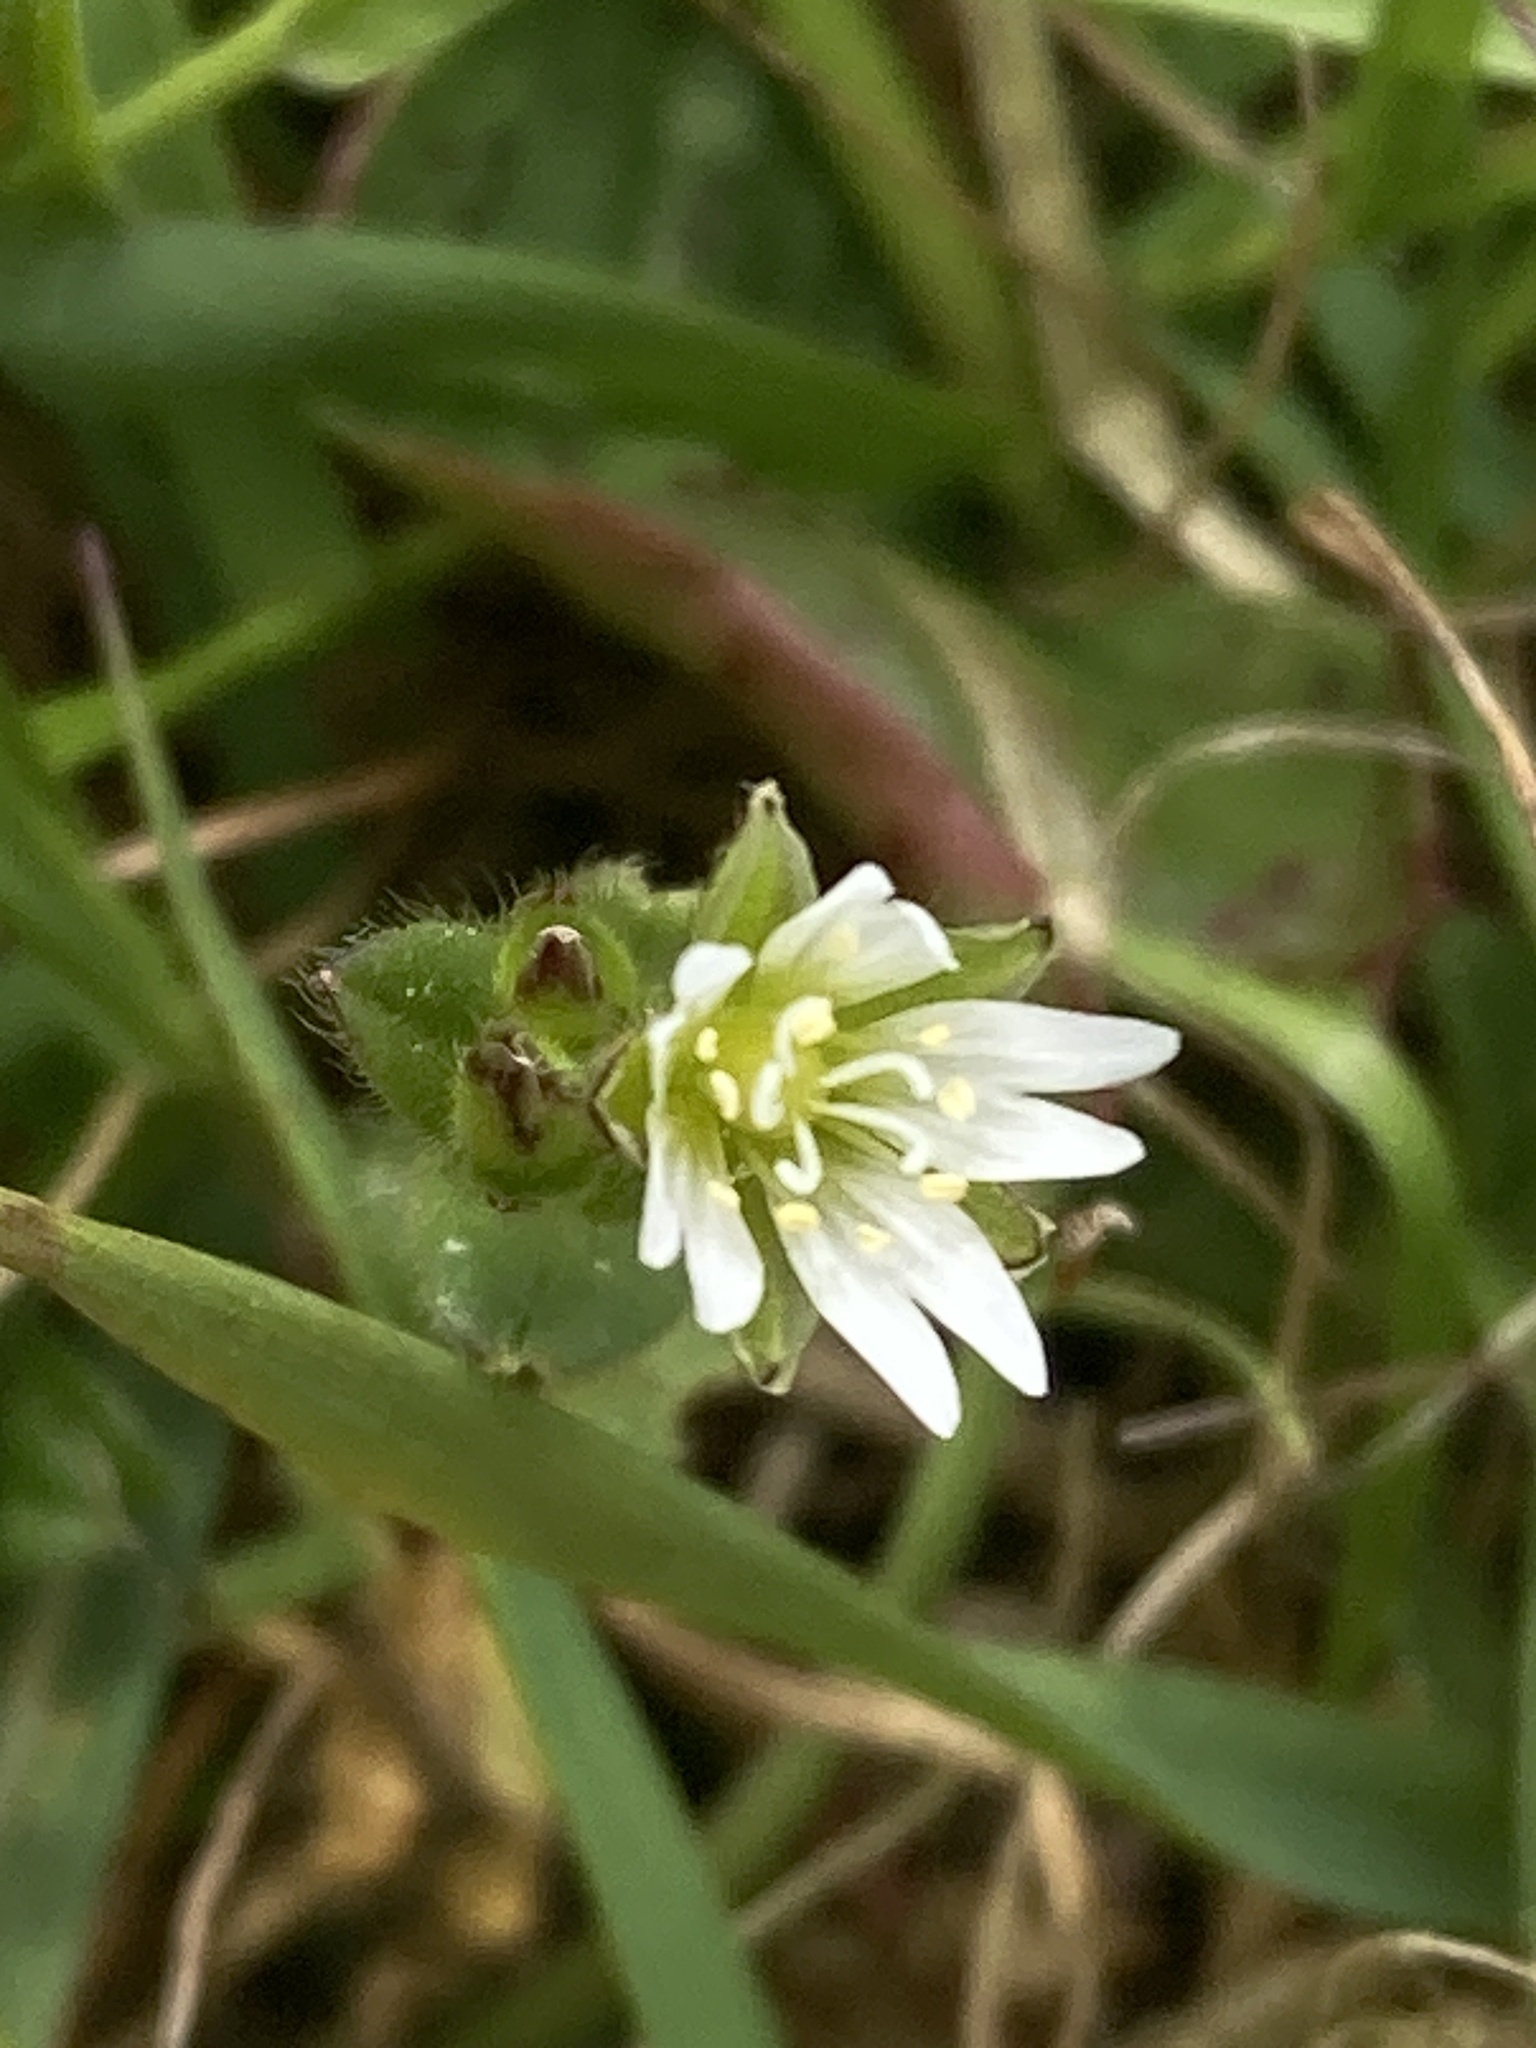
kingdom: Plantae
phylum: Tracheophyta
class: Magnoliopsida
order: Caryophyllales
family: Caryophyllaceae
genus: Cerastium
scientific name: Cerastium fontanum
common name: Common mouse-ear
